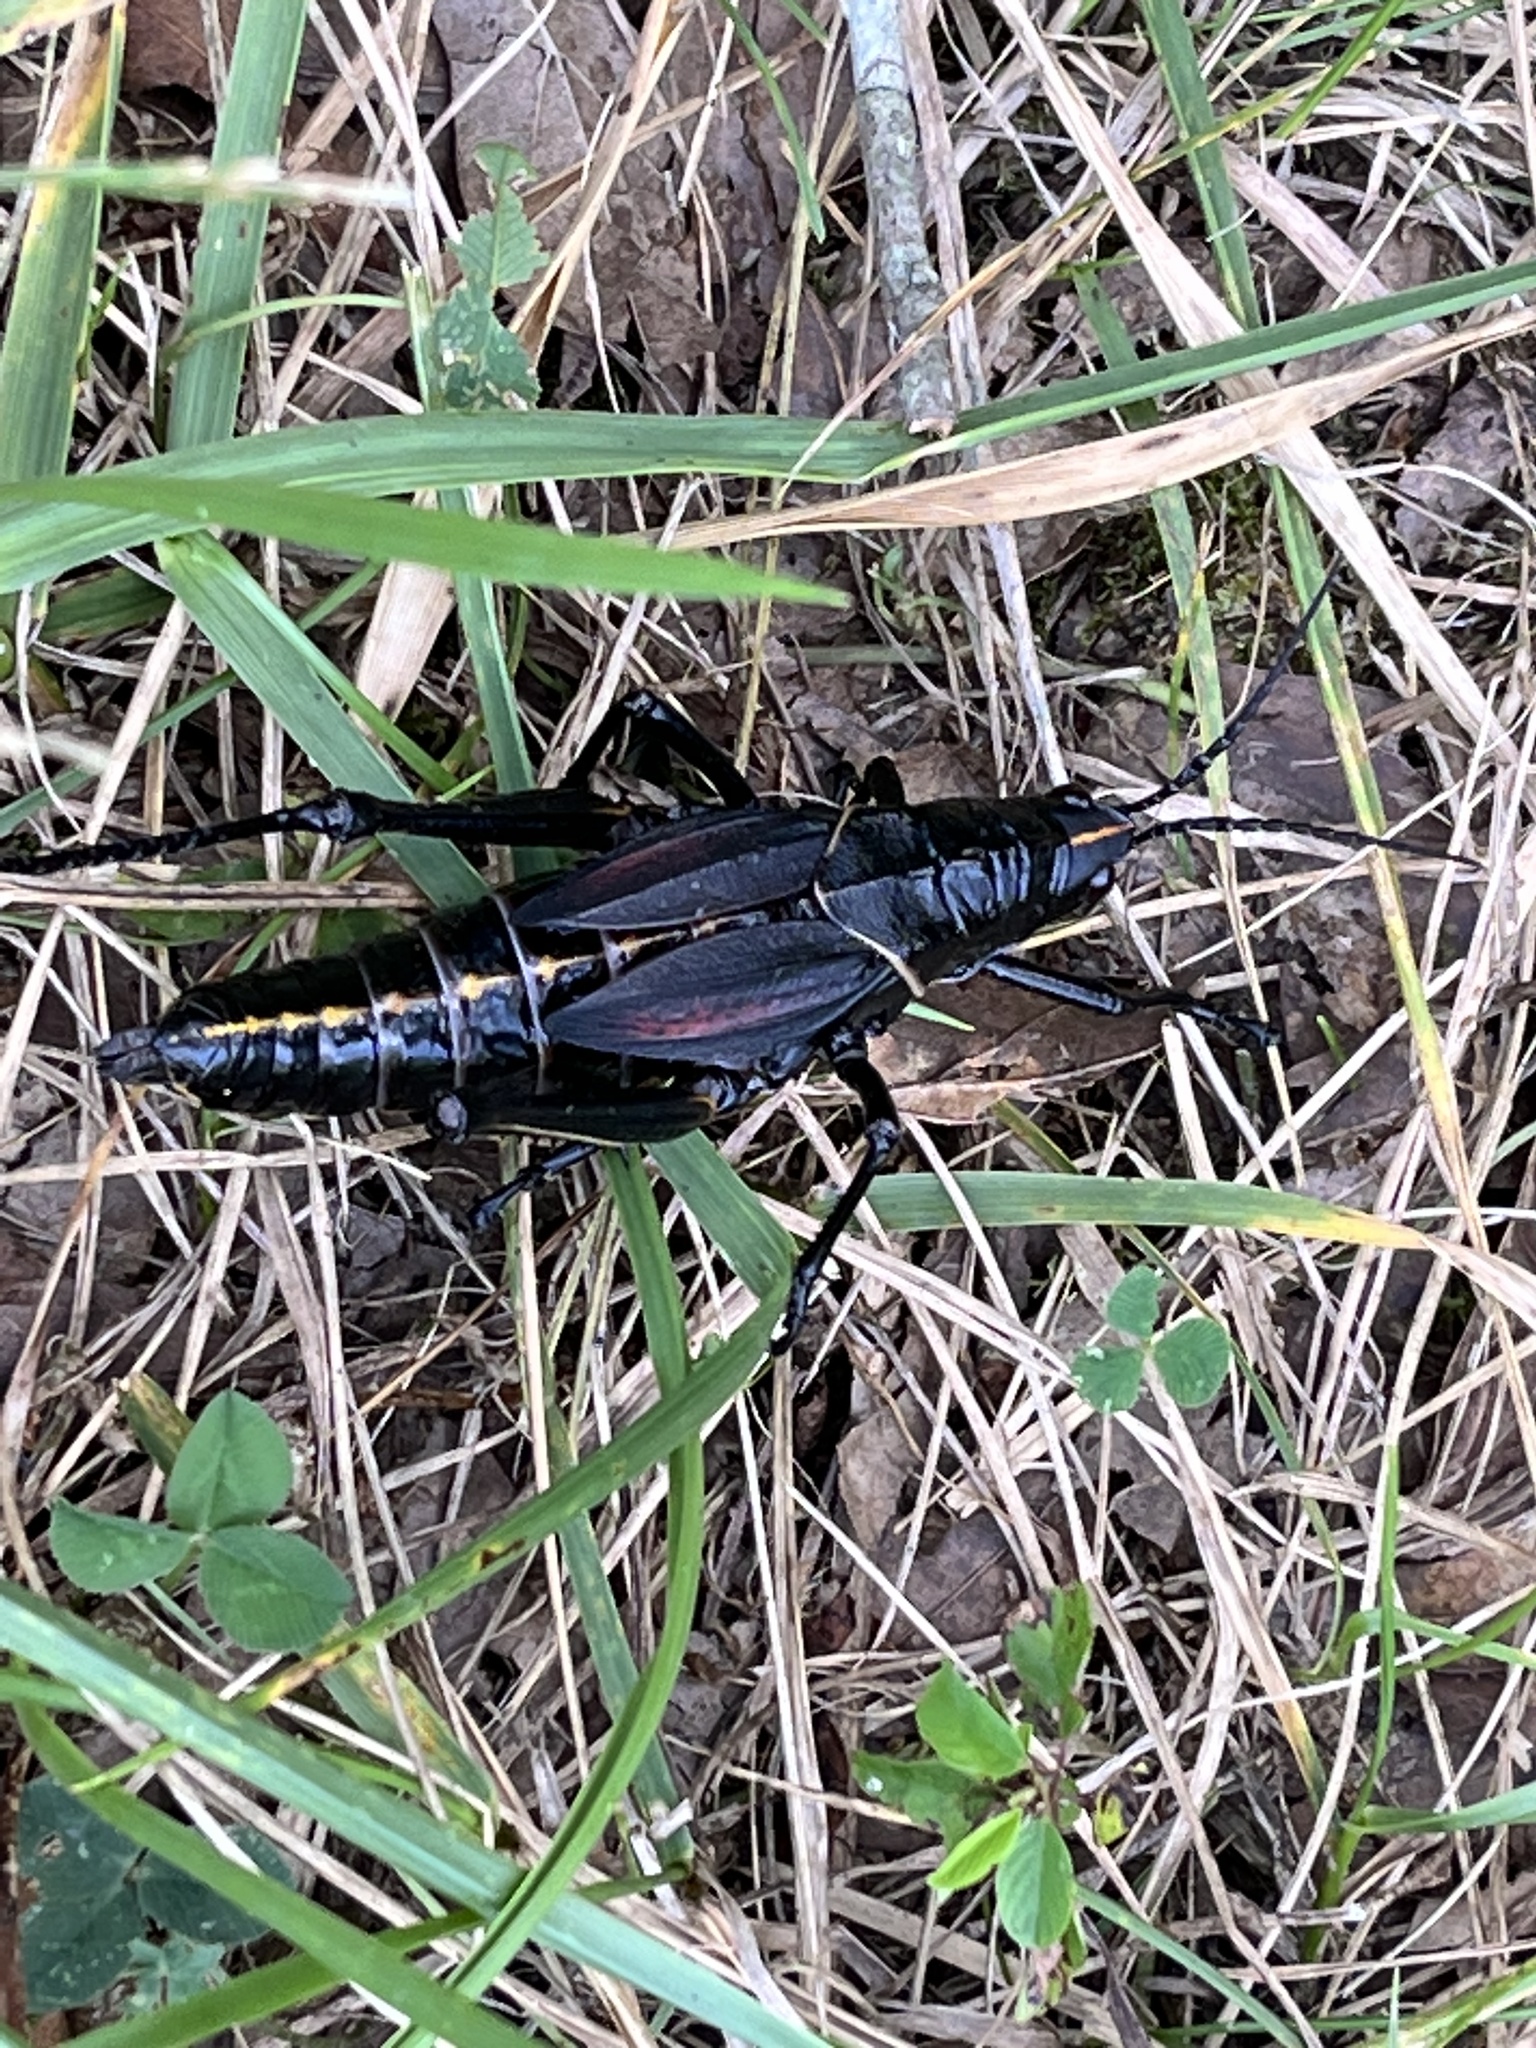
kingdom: Animalia
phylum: Arthropoda
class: Insecta
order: Orthoptera
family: Romaleidae
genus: Romalea
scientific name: Romalea microptera
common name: Eastern lubber grasshopper
